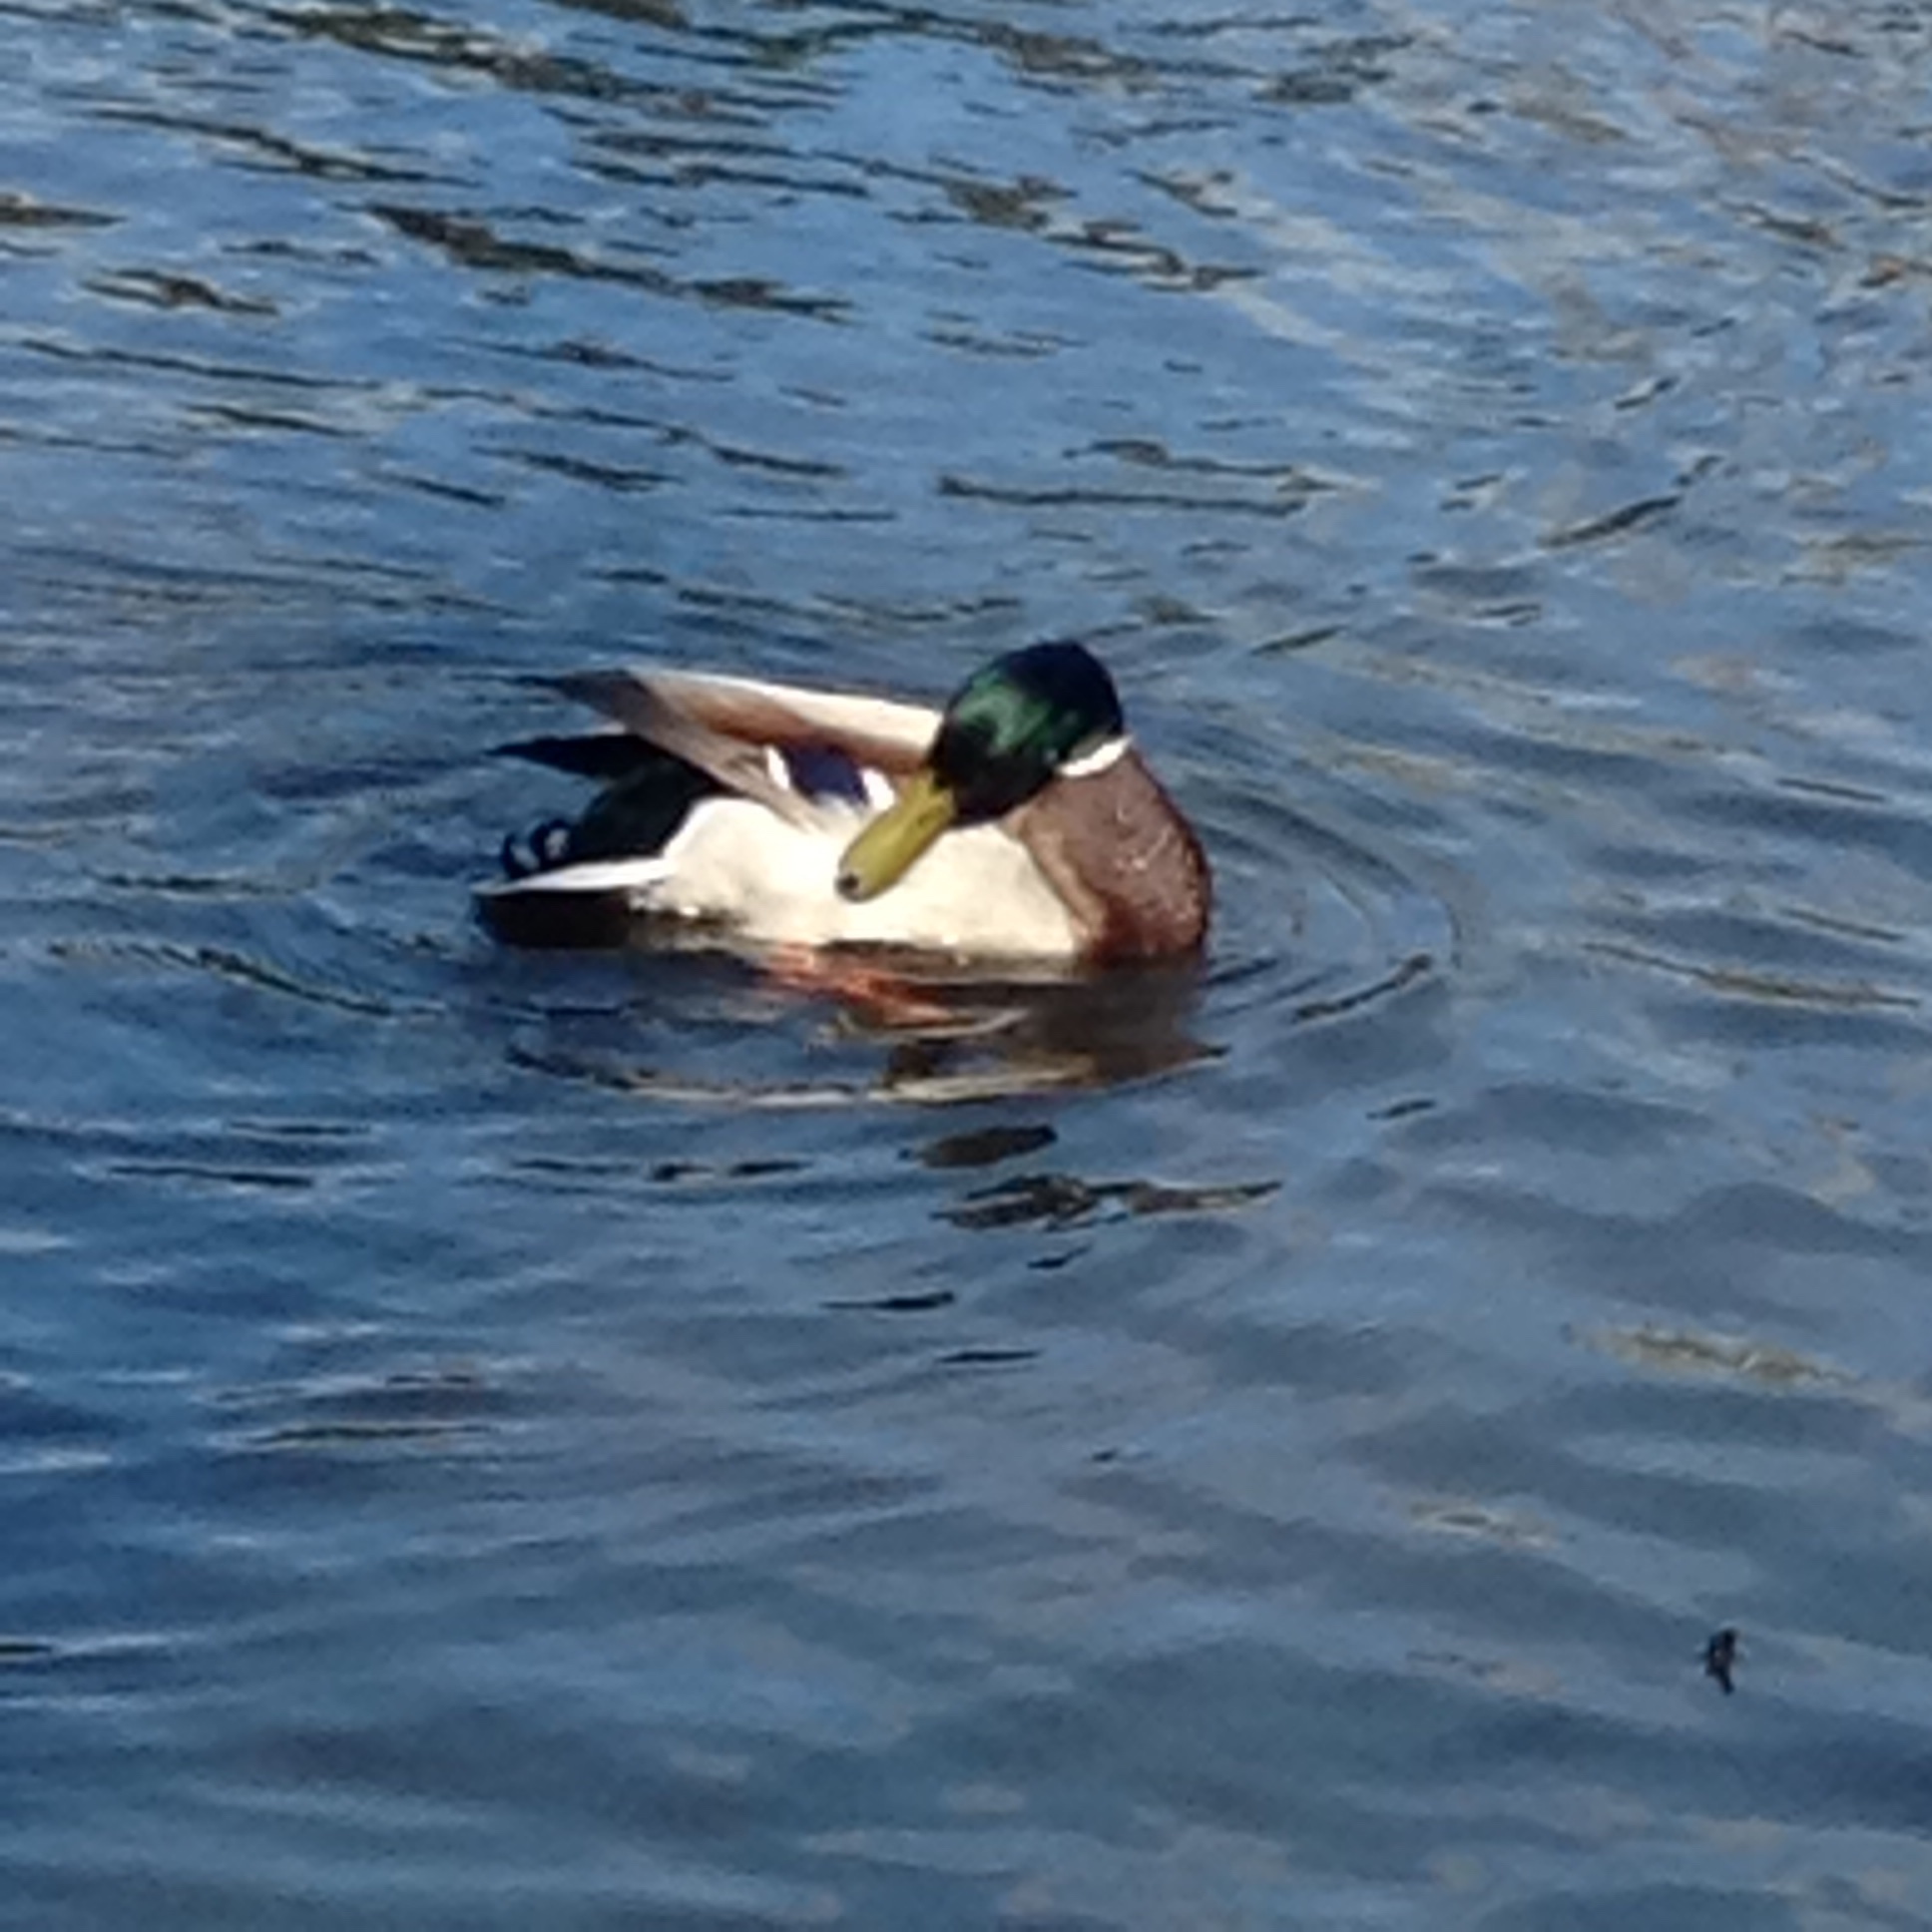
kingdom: Animalia
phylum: Chordata
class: Aves
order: Anseriformes
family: Anatidae
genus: Anas
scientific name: Anas platyrhynchos
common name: Mallard
